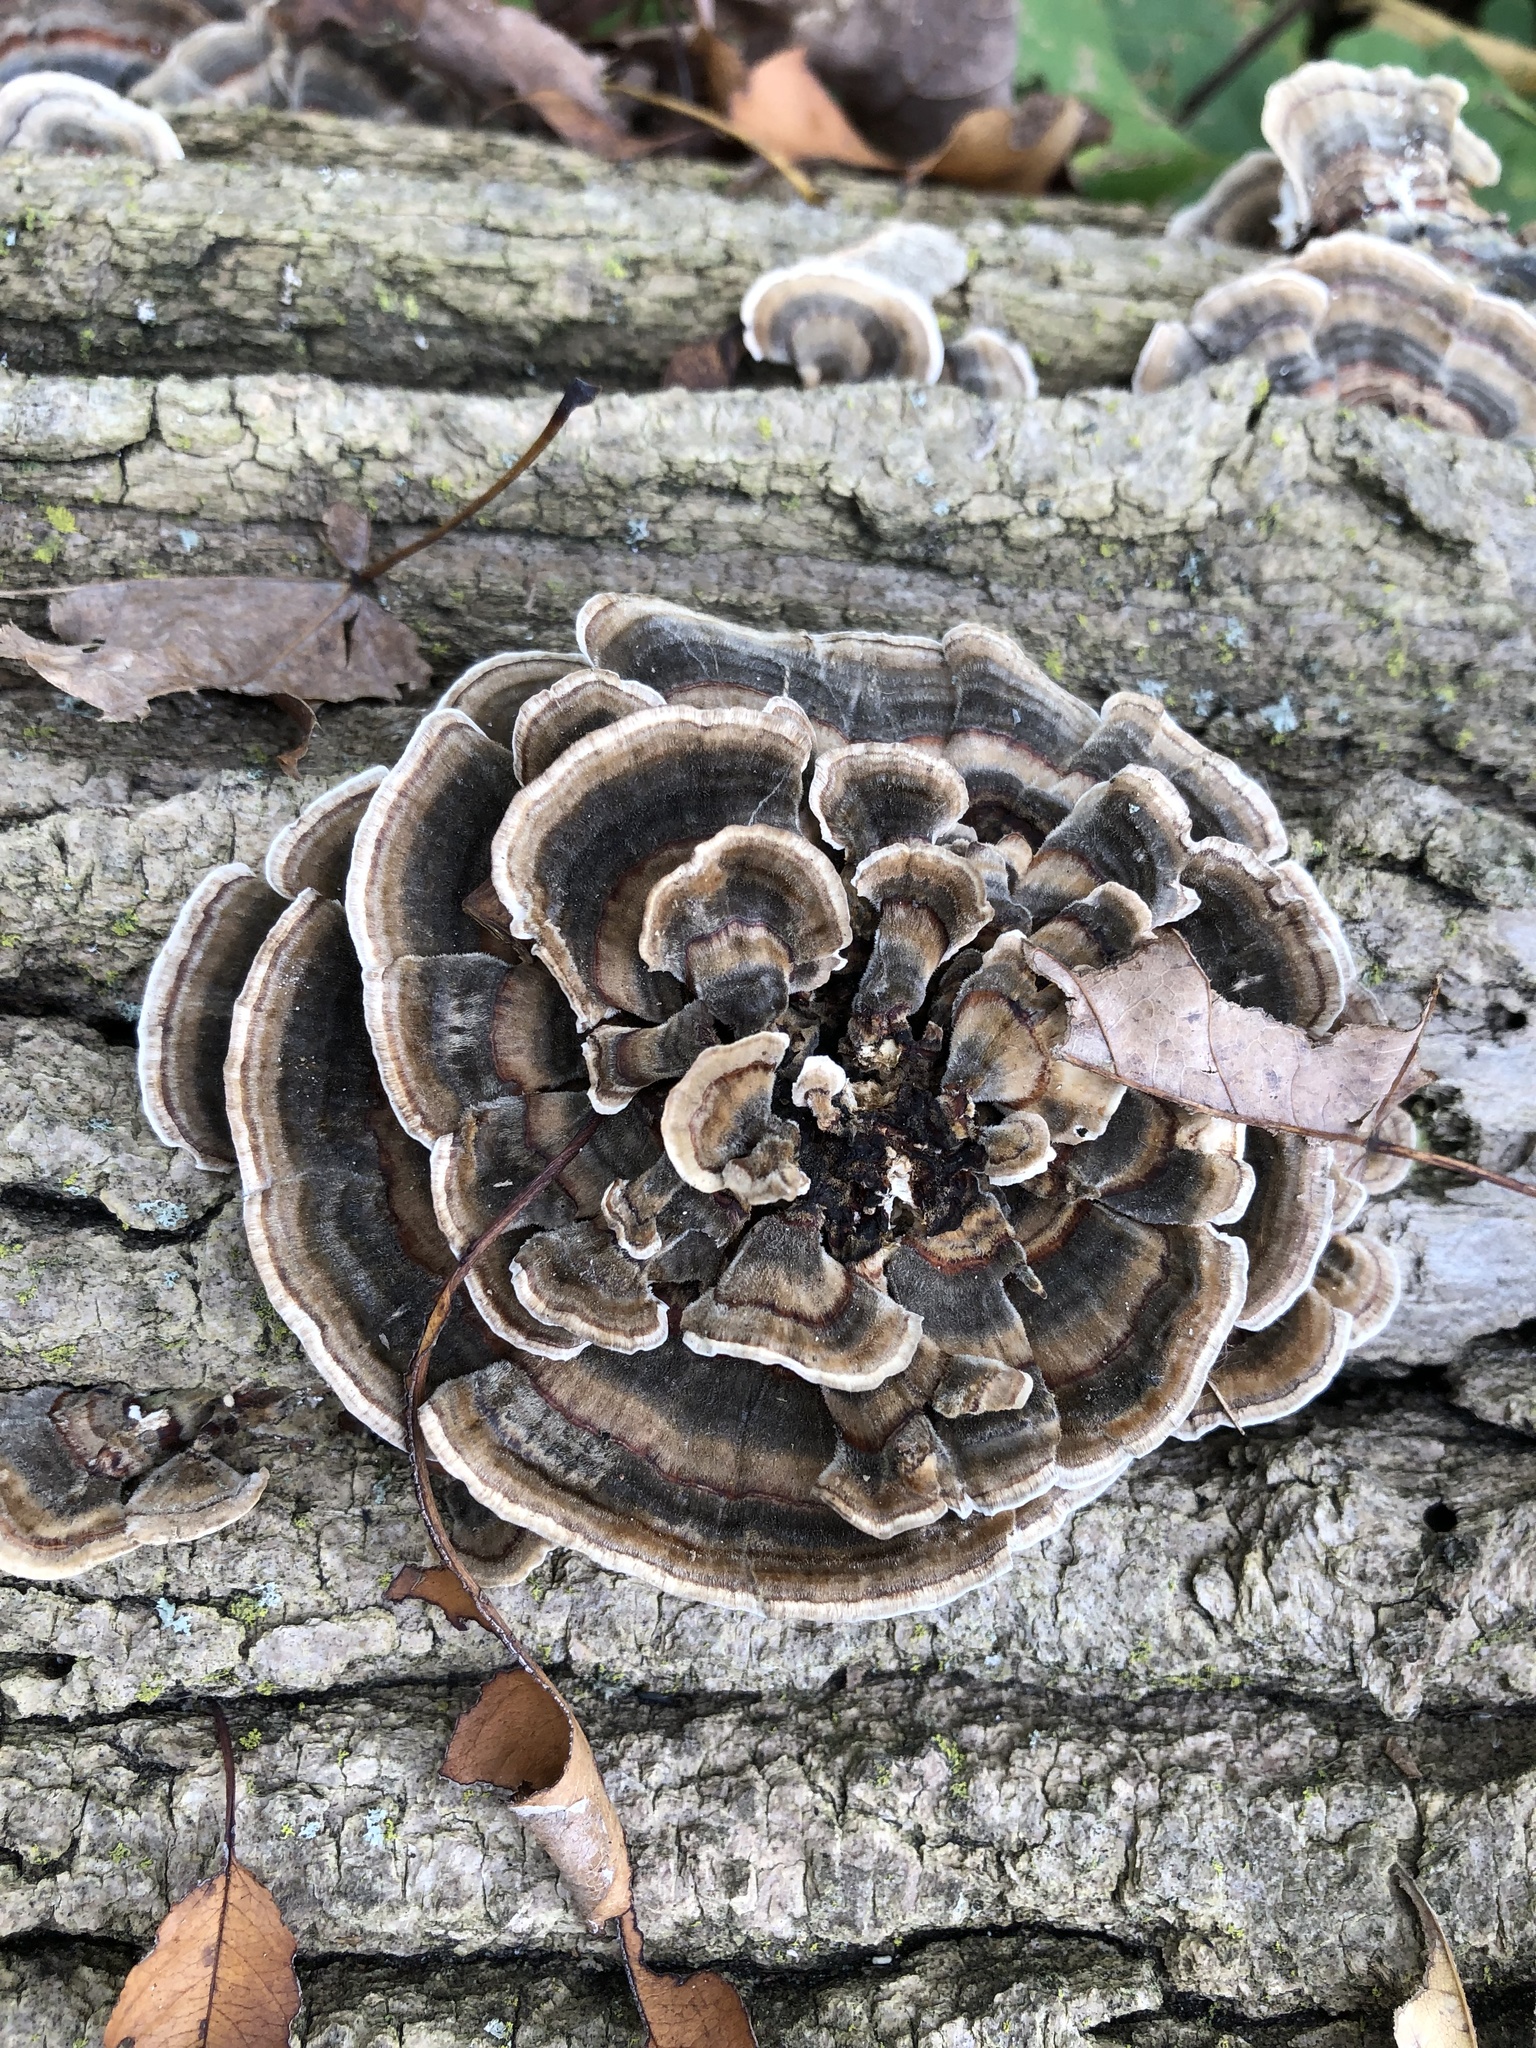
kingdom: Fungi
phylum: Basidiomycota
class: Agaricomycetes
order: Polyporales
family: Polyporaceae
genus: Trametes
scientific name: Trametes versicolor
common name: Turkeytail
